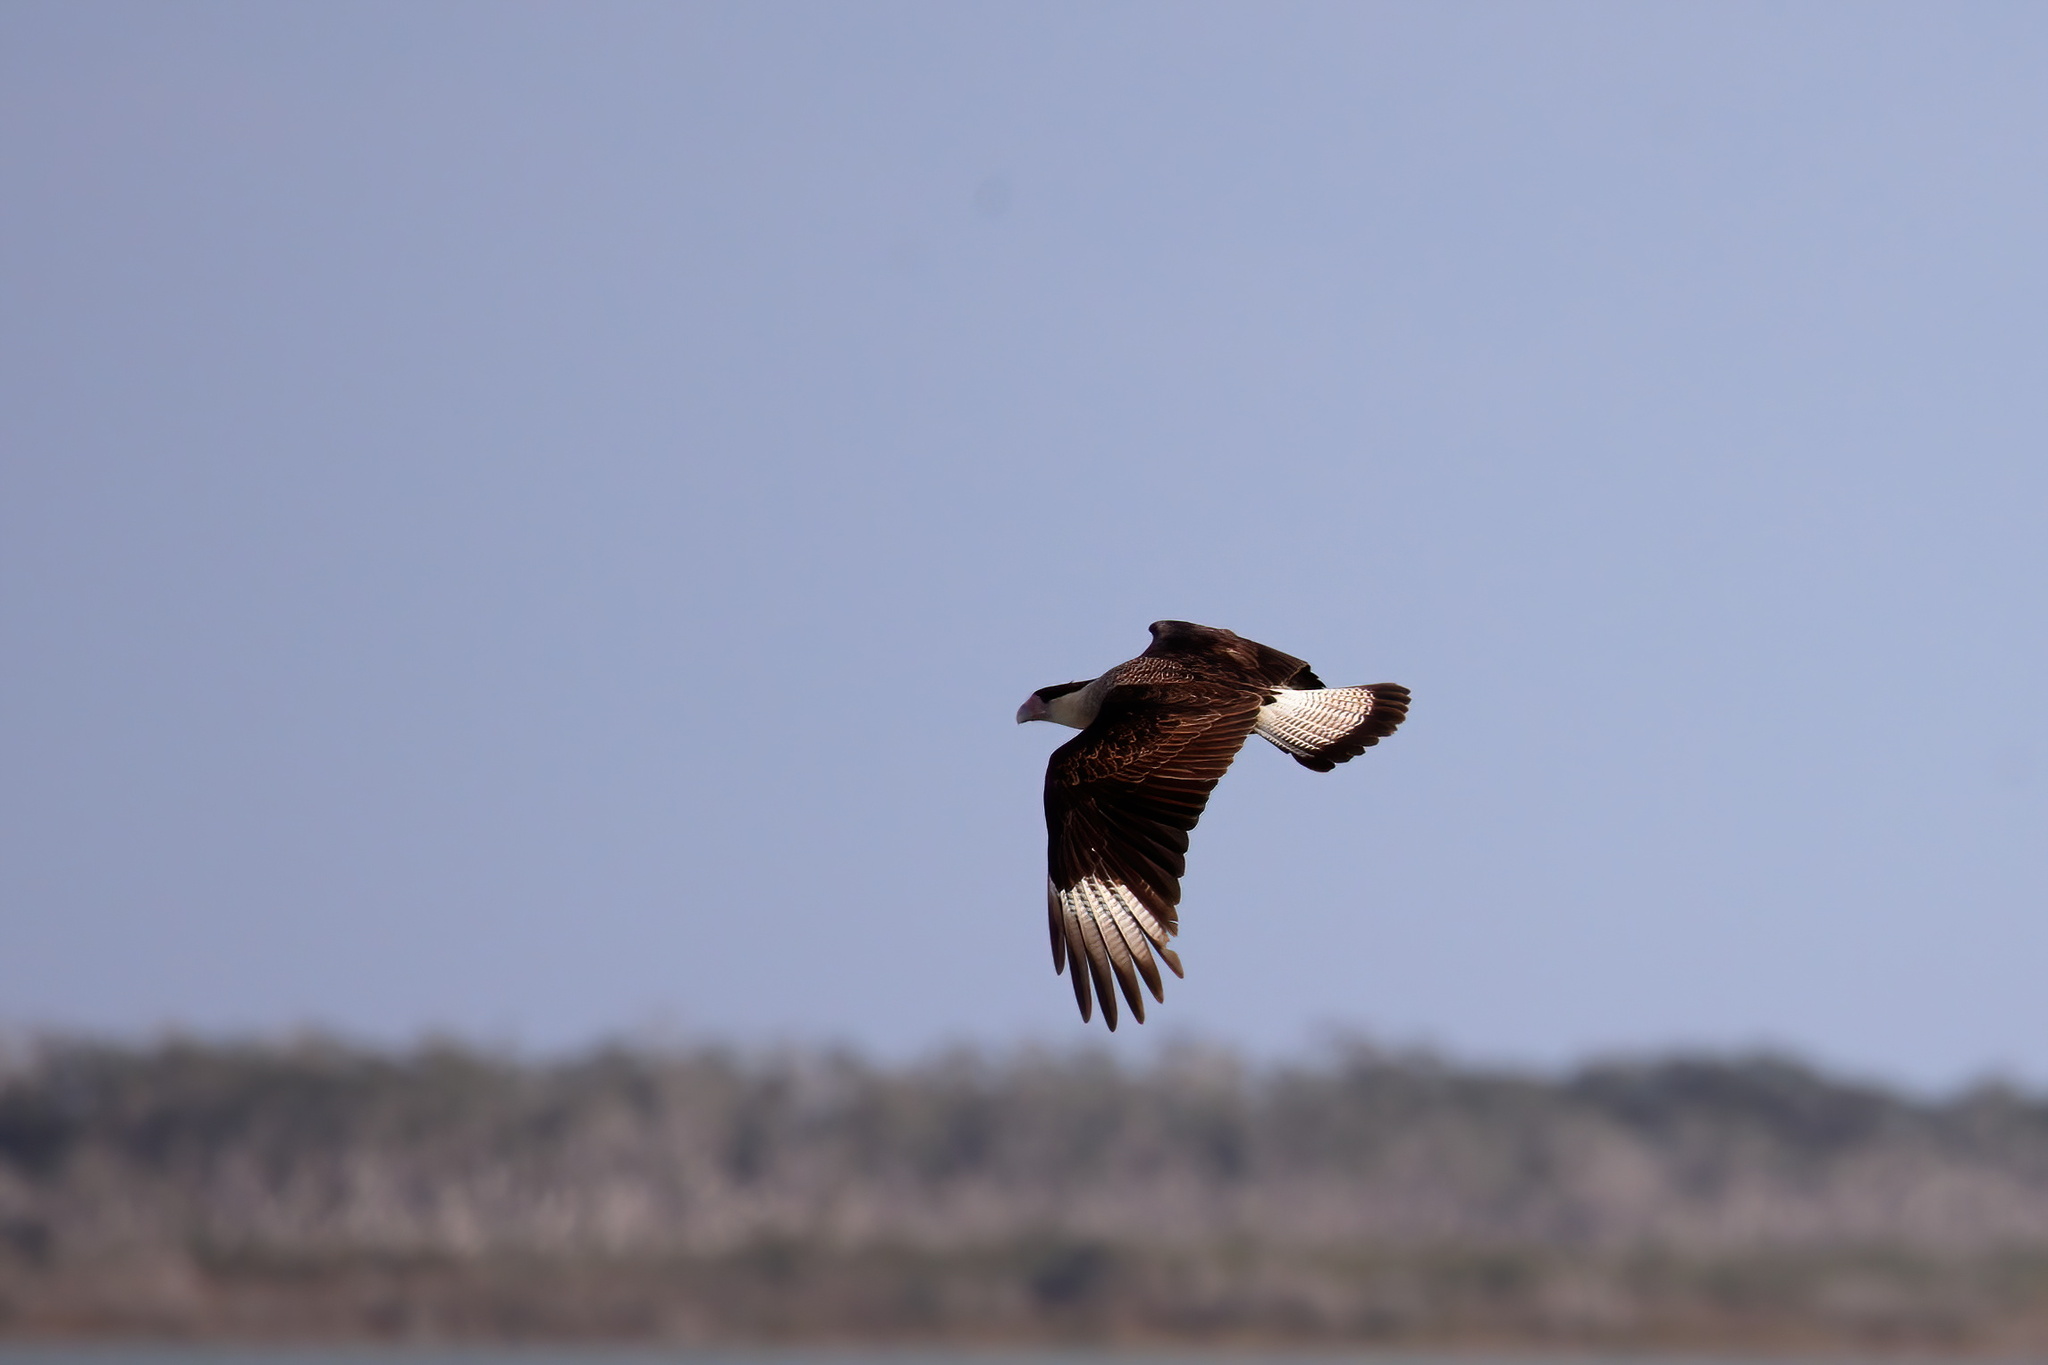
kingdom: Animalia
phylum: Chordata
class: Aves
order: Falconiformes
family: Falconidae
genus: Caracara
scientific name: Caracara plancus
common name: Southern caracara
